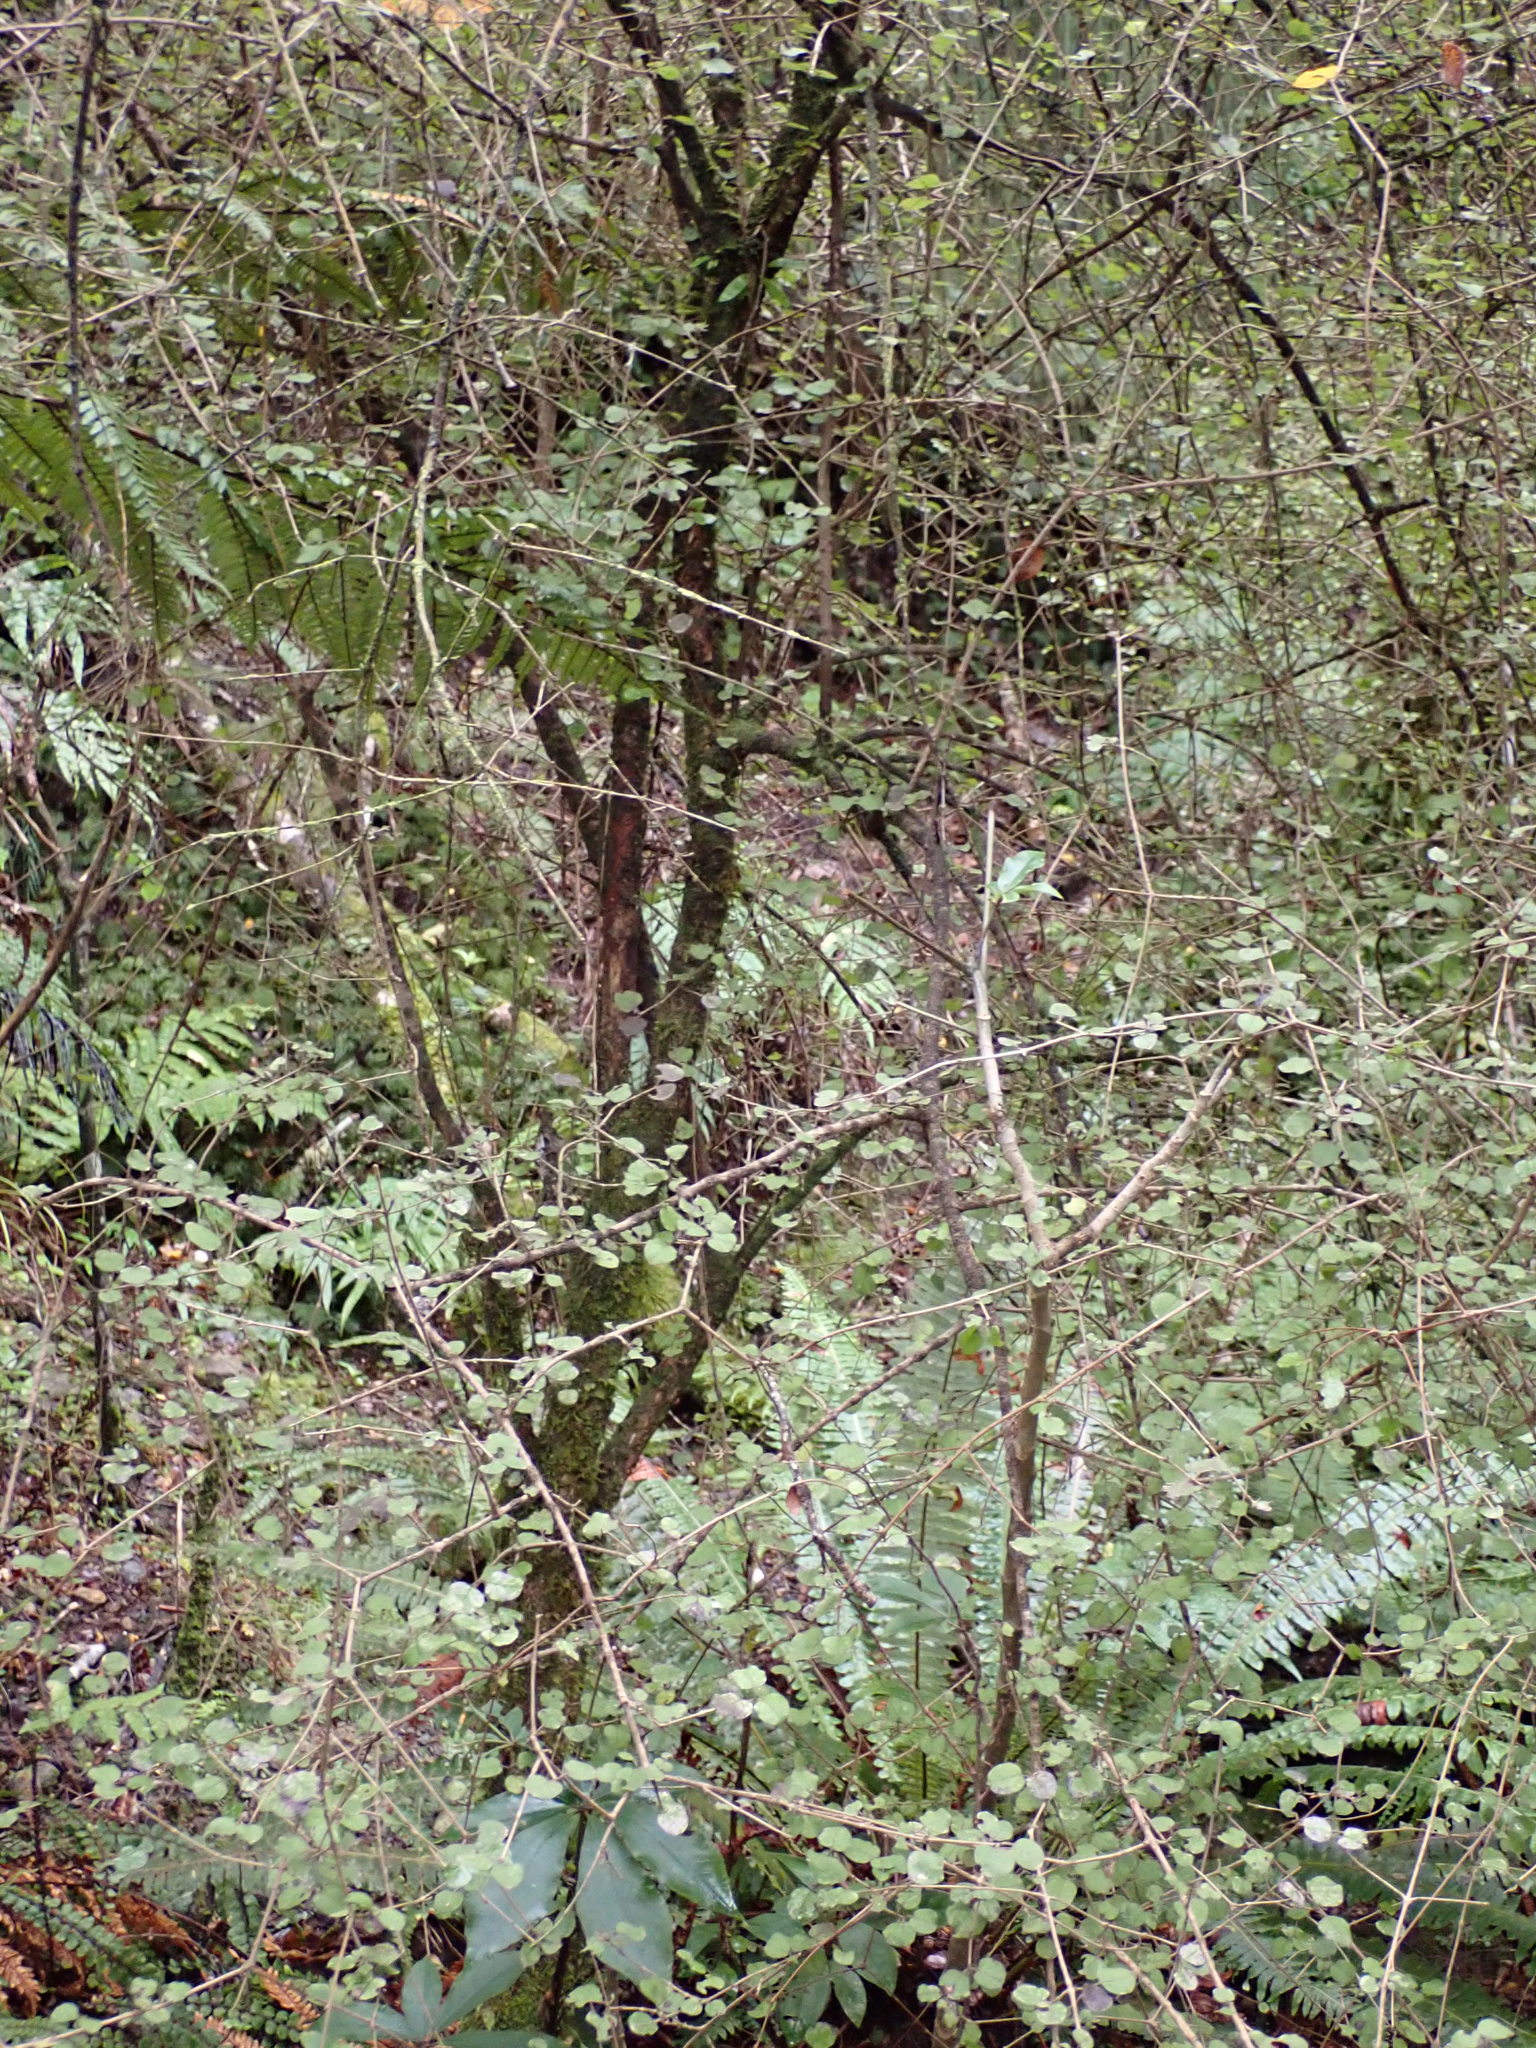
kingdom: Plantae
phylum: Tracheophyta
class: Magnoliopsida
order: Gentianales
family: Rubiaceae
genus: Coprosma
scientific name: Coprosma rotundifolia
